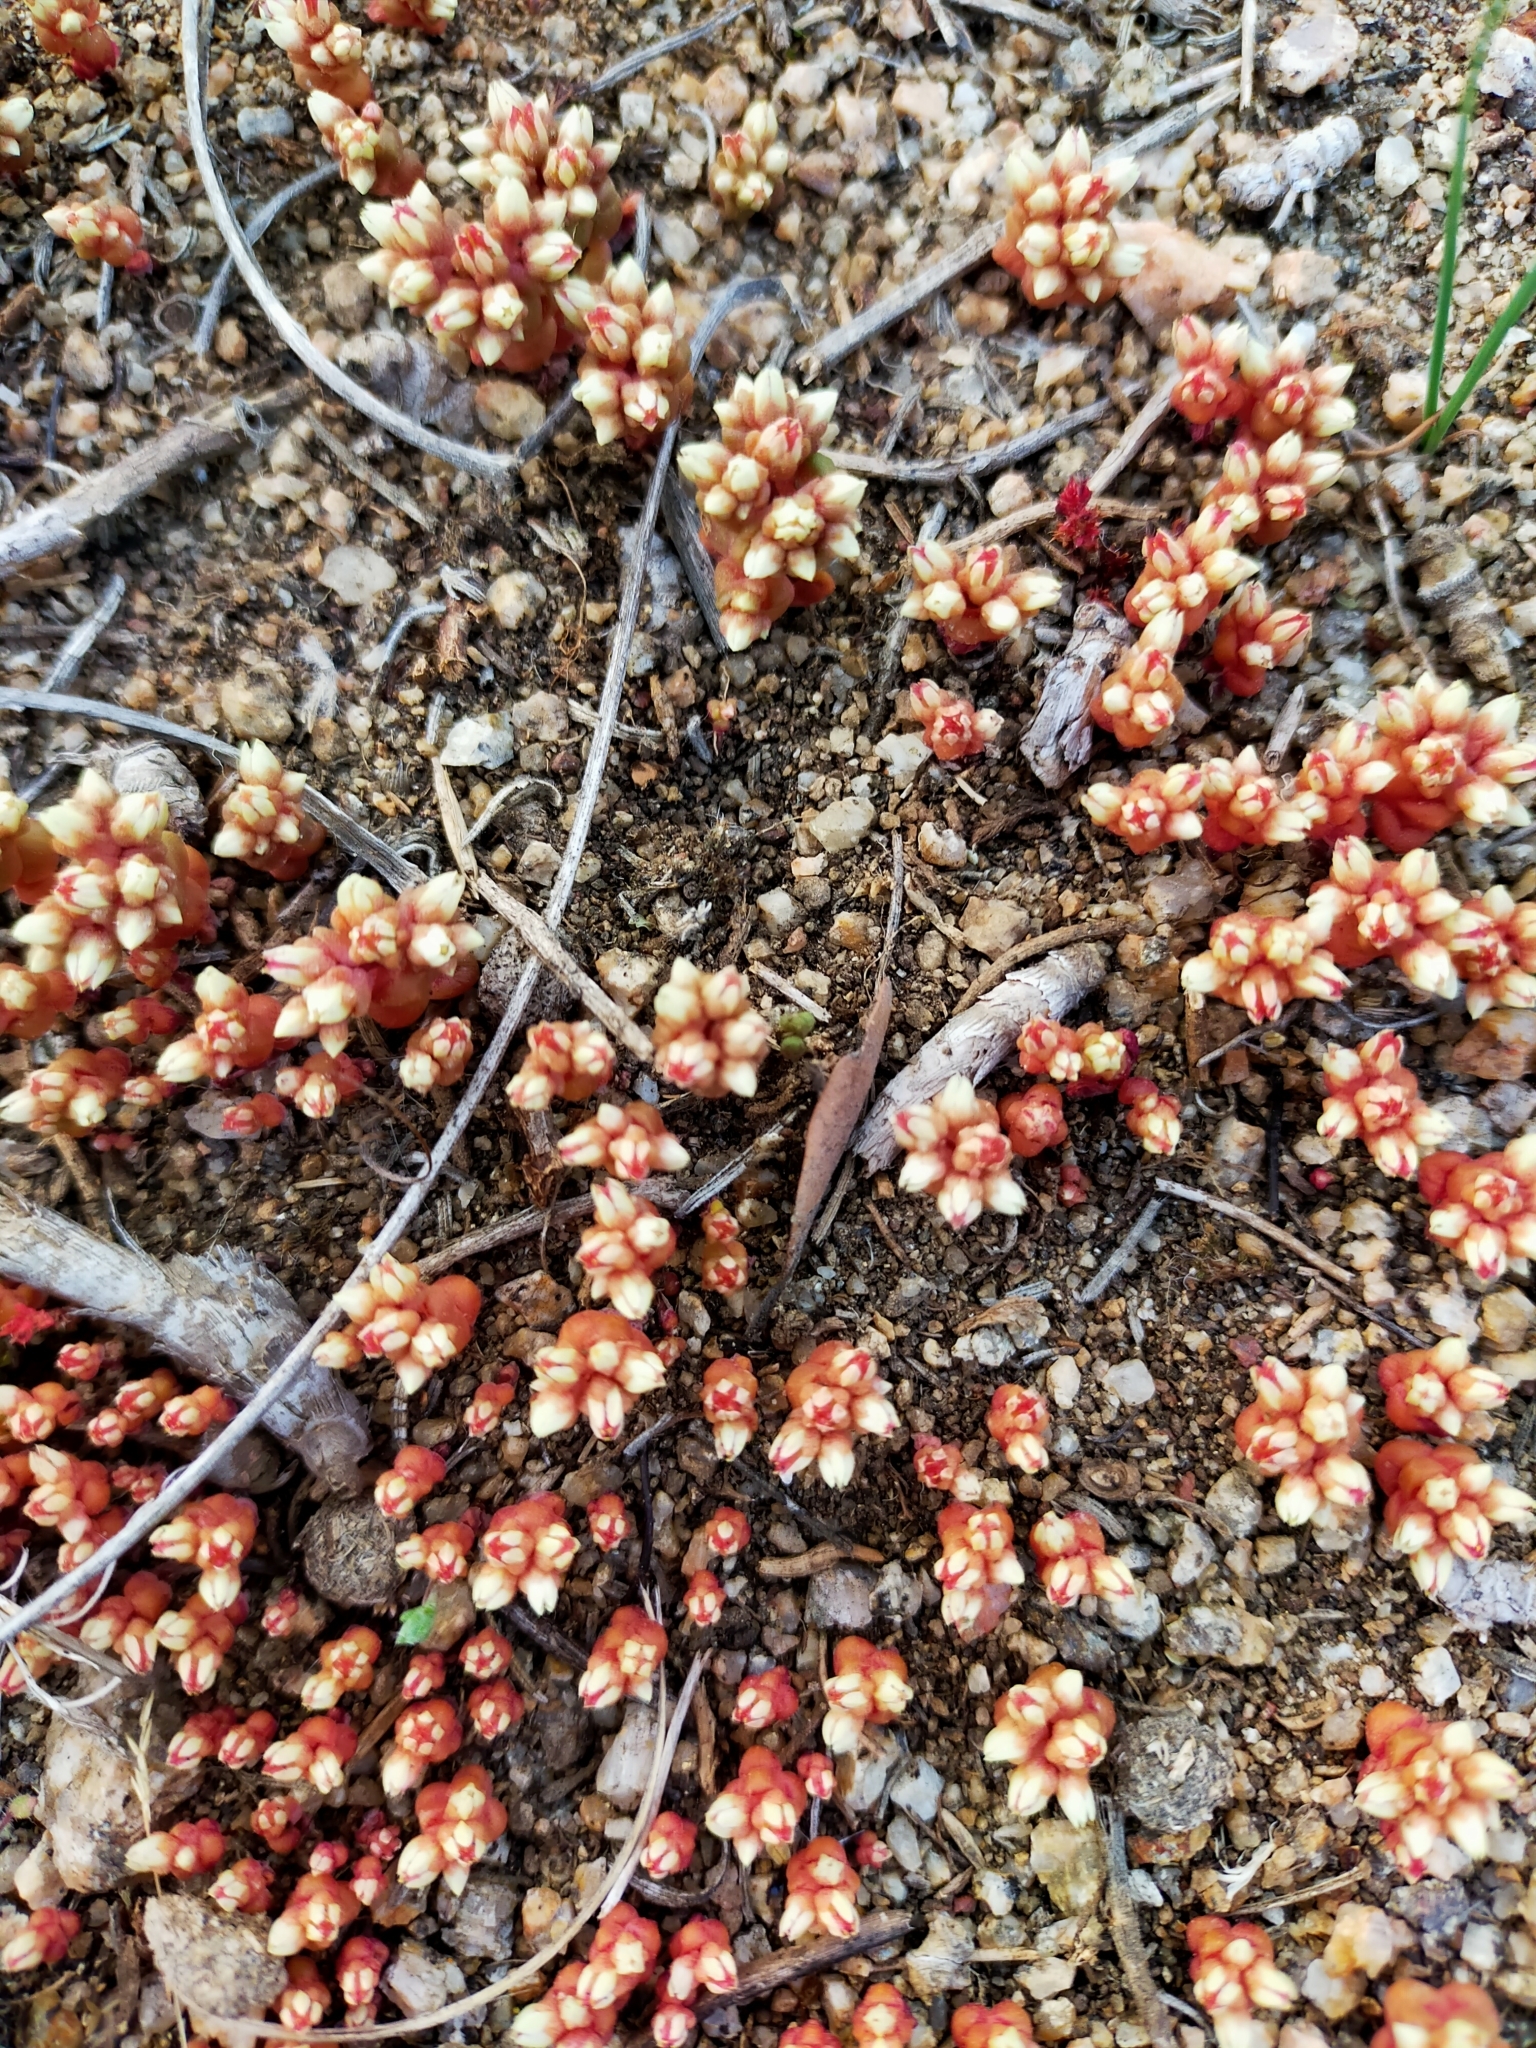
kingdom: Plantae
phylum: Tracheophyta
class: Magnoliopsida
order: Saxifragales
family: Crassulaceae
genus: Sedum
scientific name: Sedum andegavense
